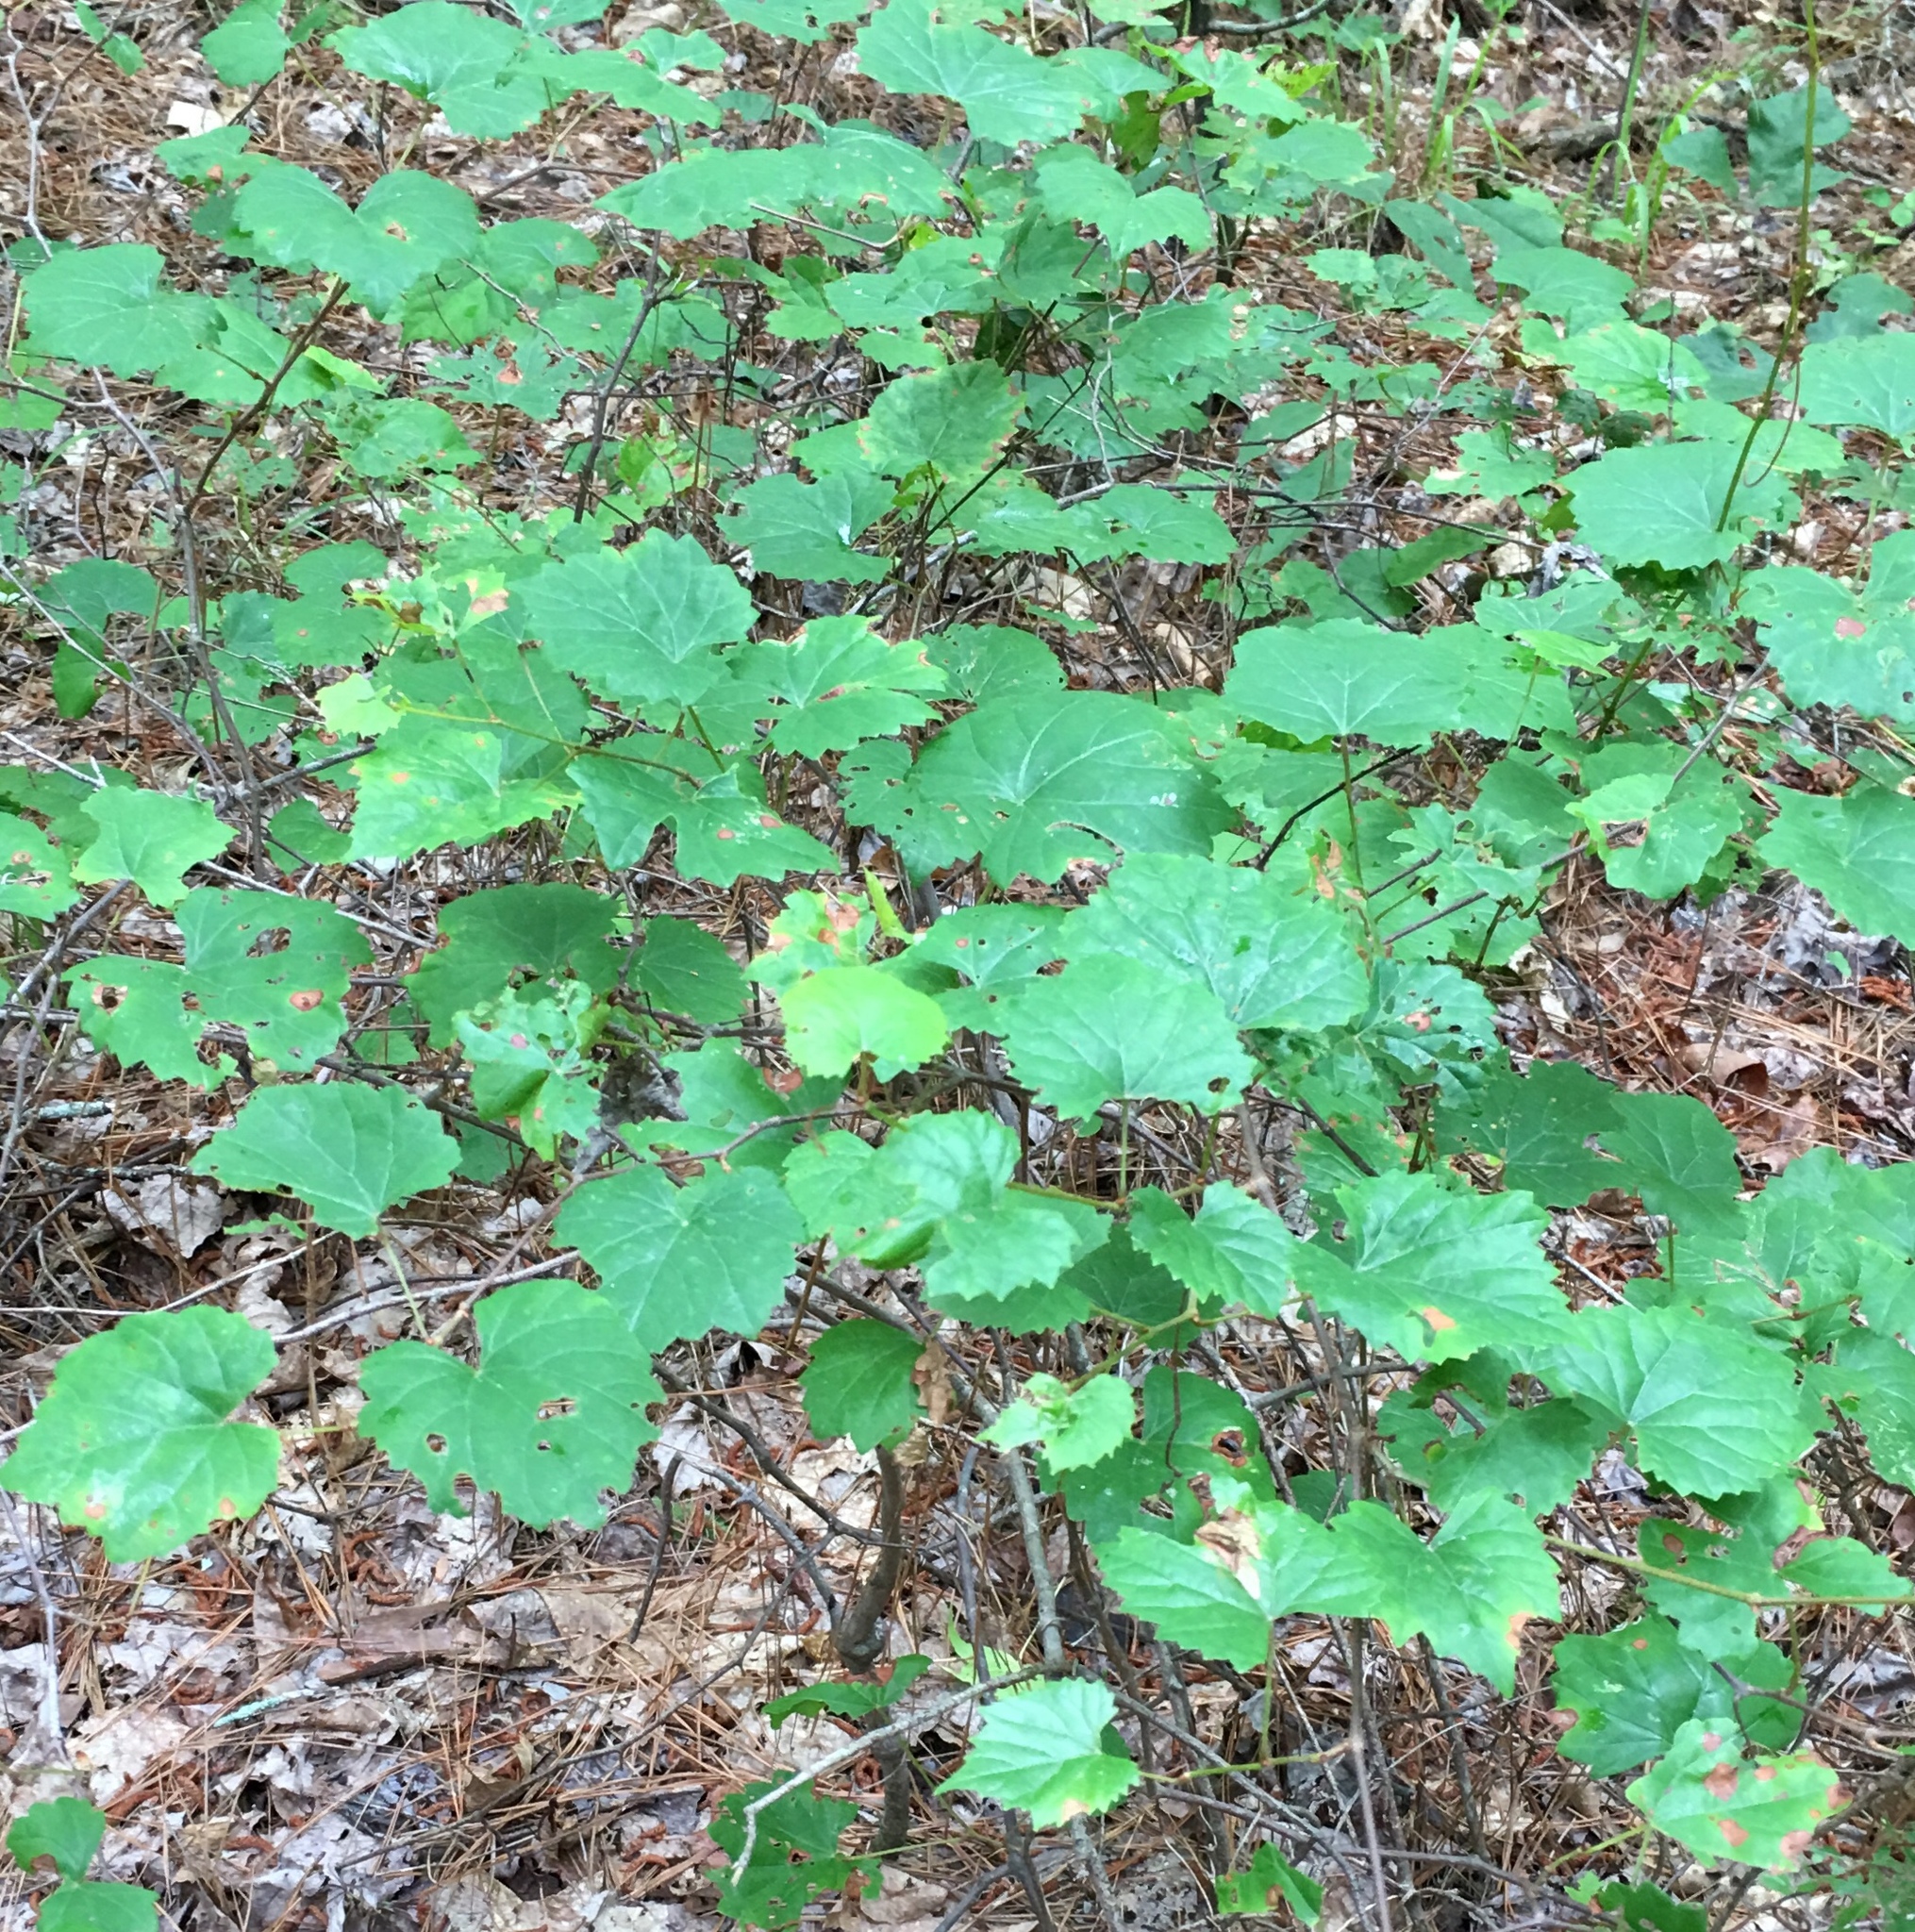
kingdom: Plantae
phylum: Tracheophyta
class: Magnoliopsida
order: Vitales
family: Vitaceae
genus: Vitis
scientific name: Vitis rotundifolia
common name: Muscadine grape
